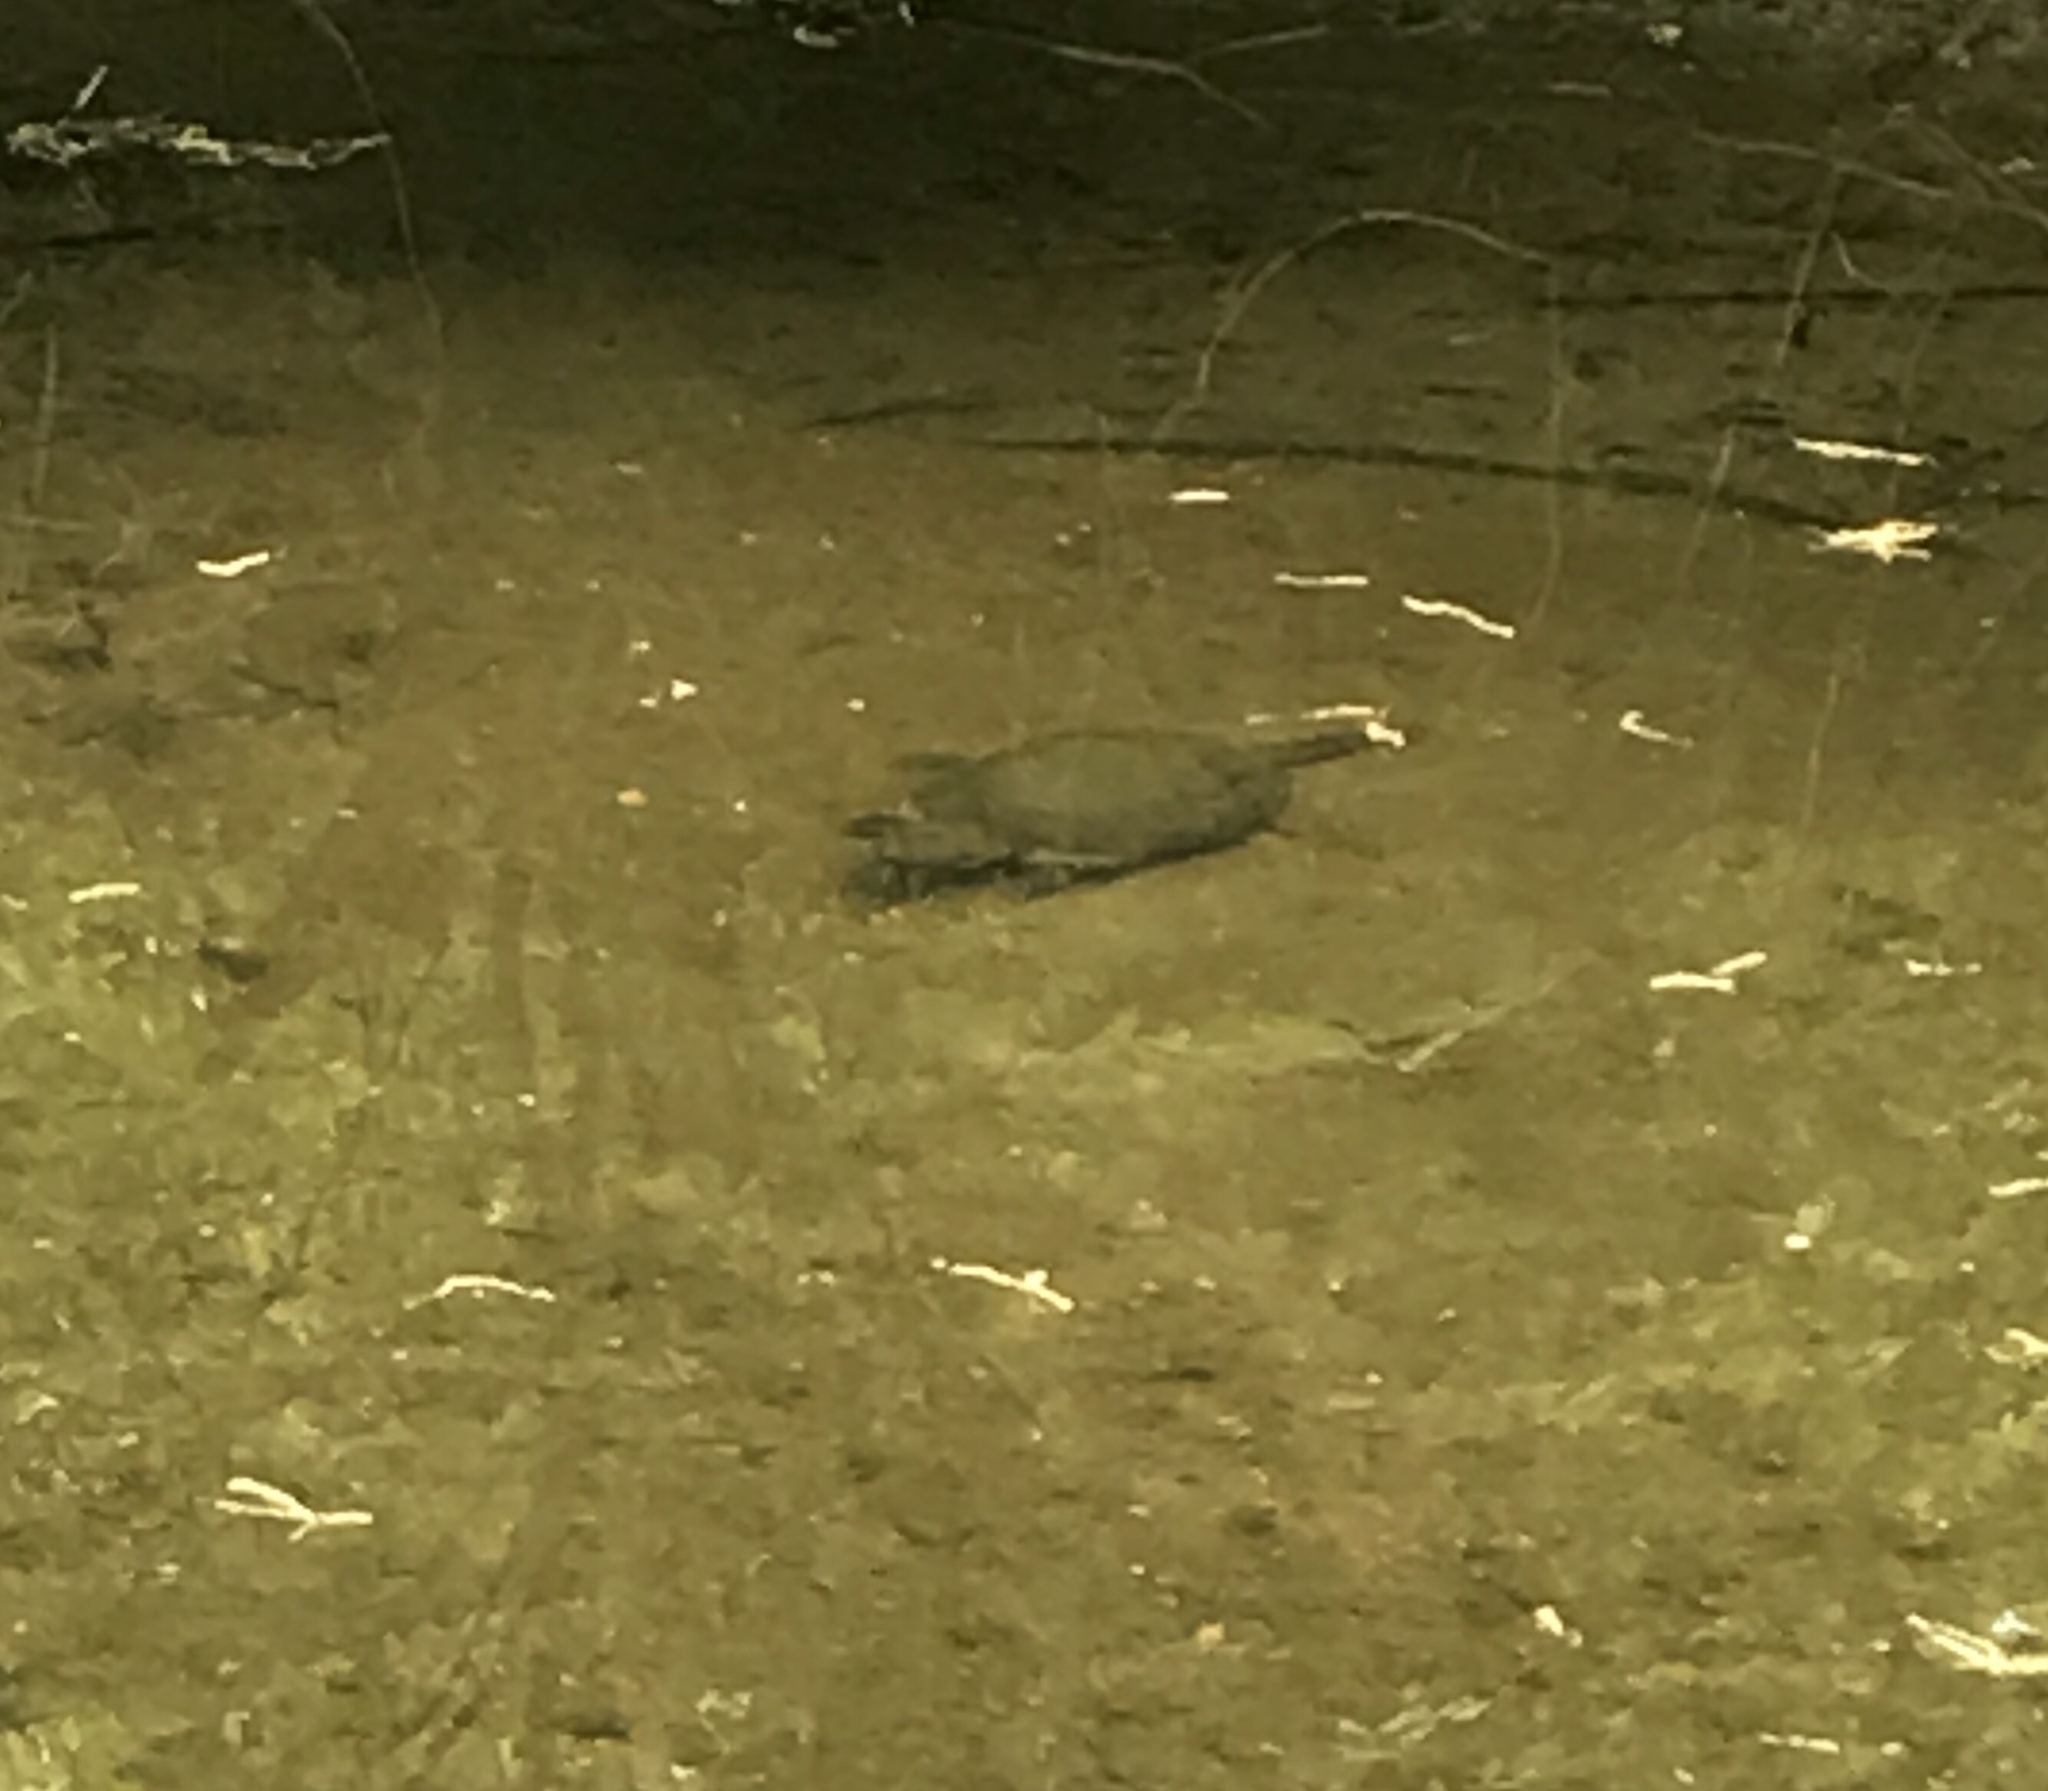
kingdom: Animalia
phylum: Chordata
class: Testudines
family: Chelydridae
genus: Chelydra
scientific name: Chelydra serpentina
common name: Common snapping turtle
